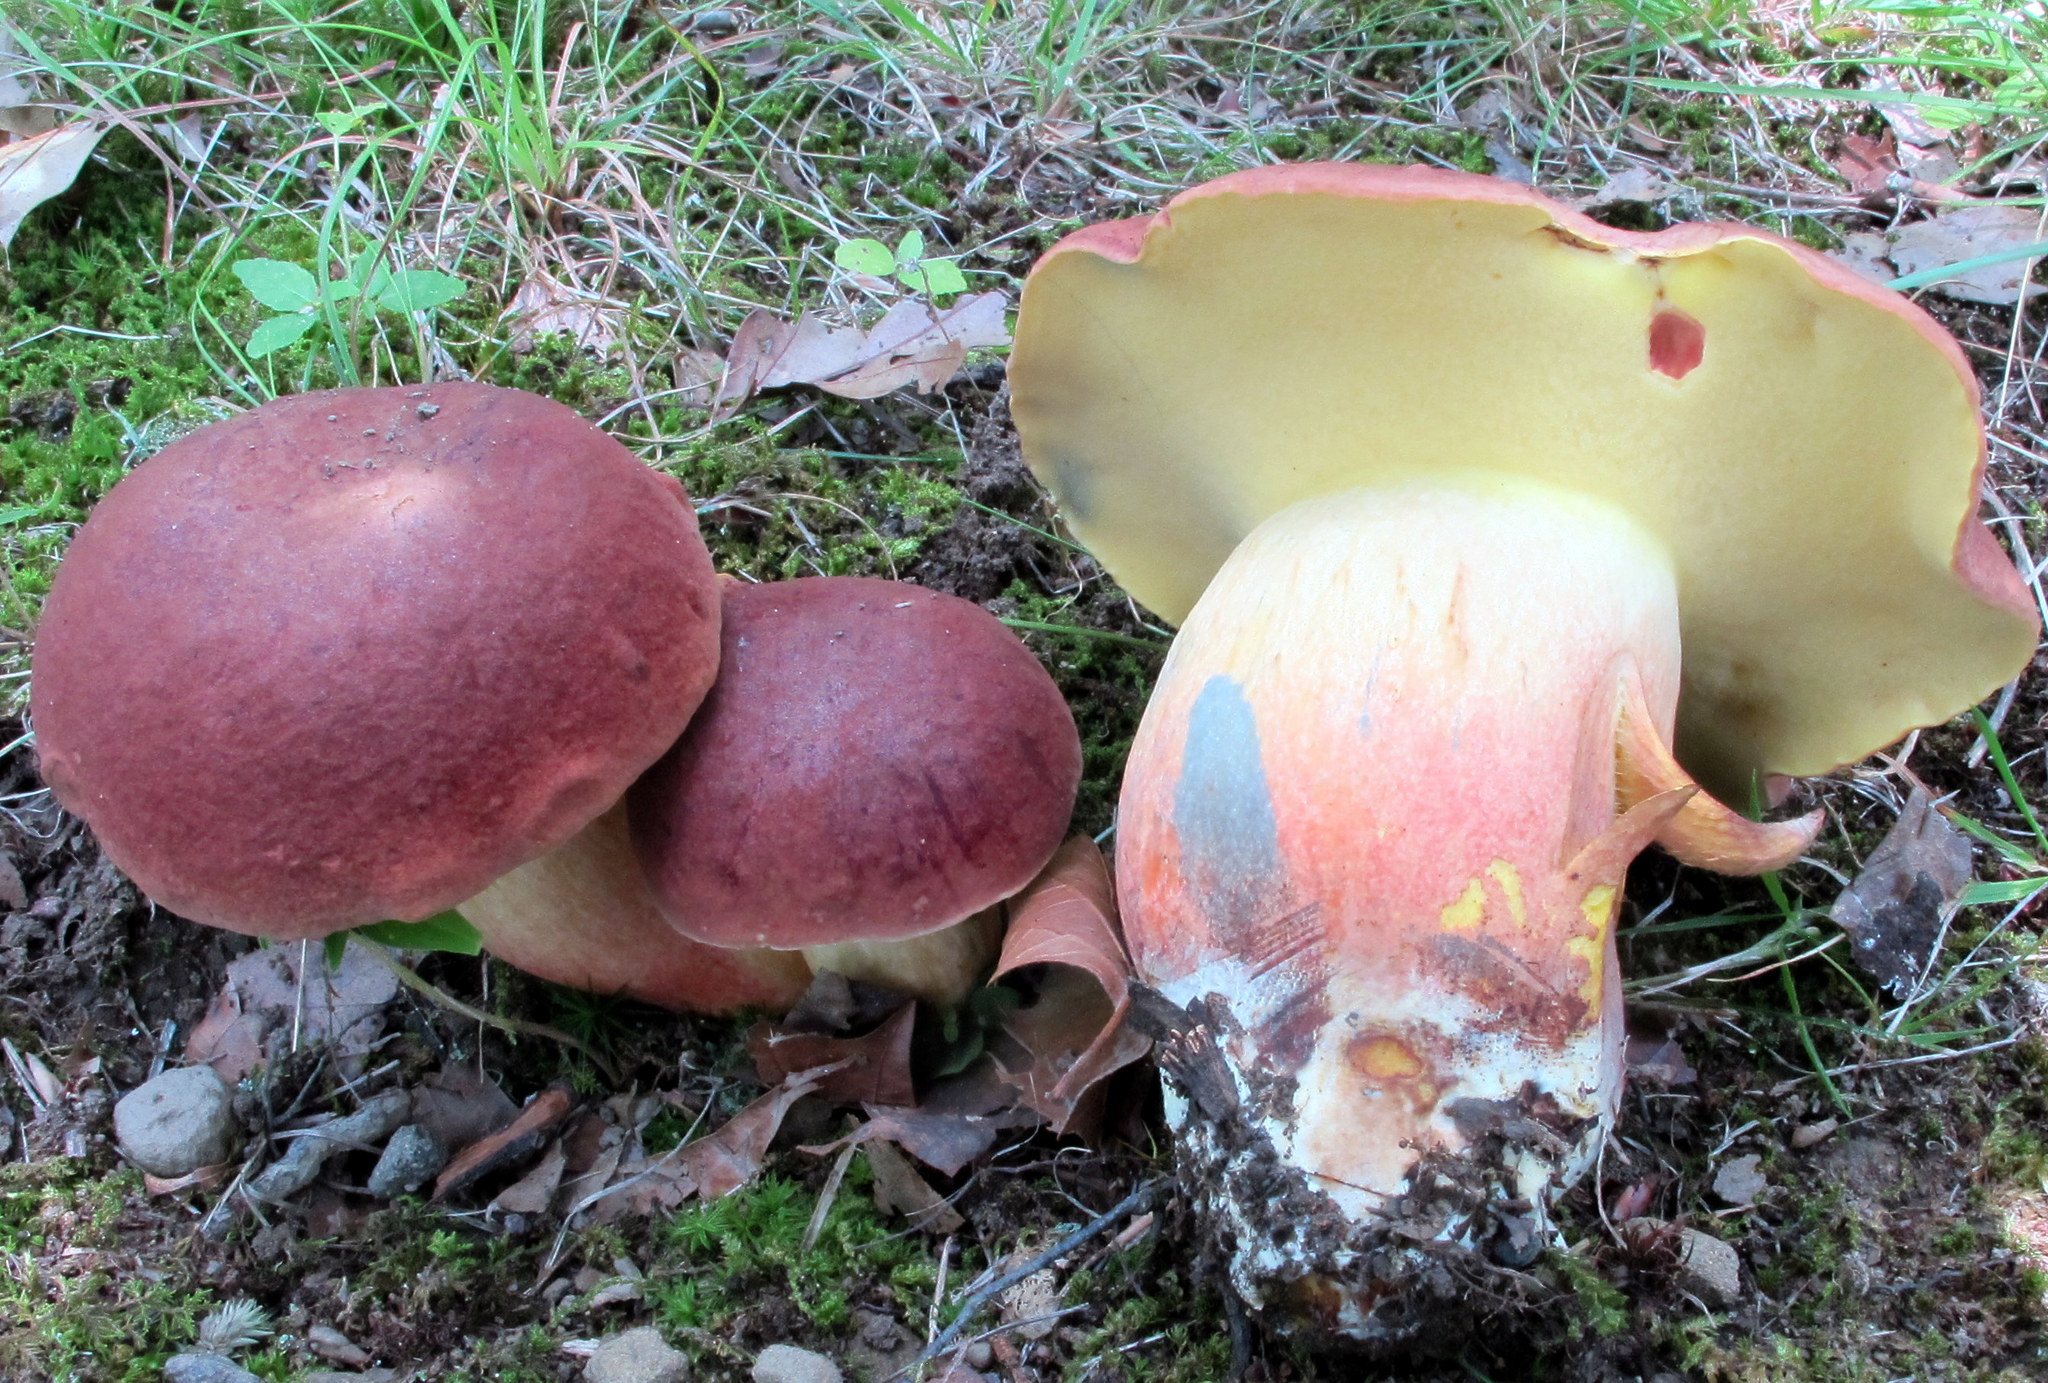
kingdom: Fungi
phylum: Basidiomycota
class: Agaricomycetes
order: Boletales
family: Boletaceae
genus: Baorangia
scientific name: Baorangia bicolor
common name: Two-colored bolete
